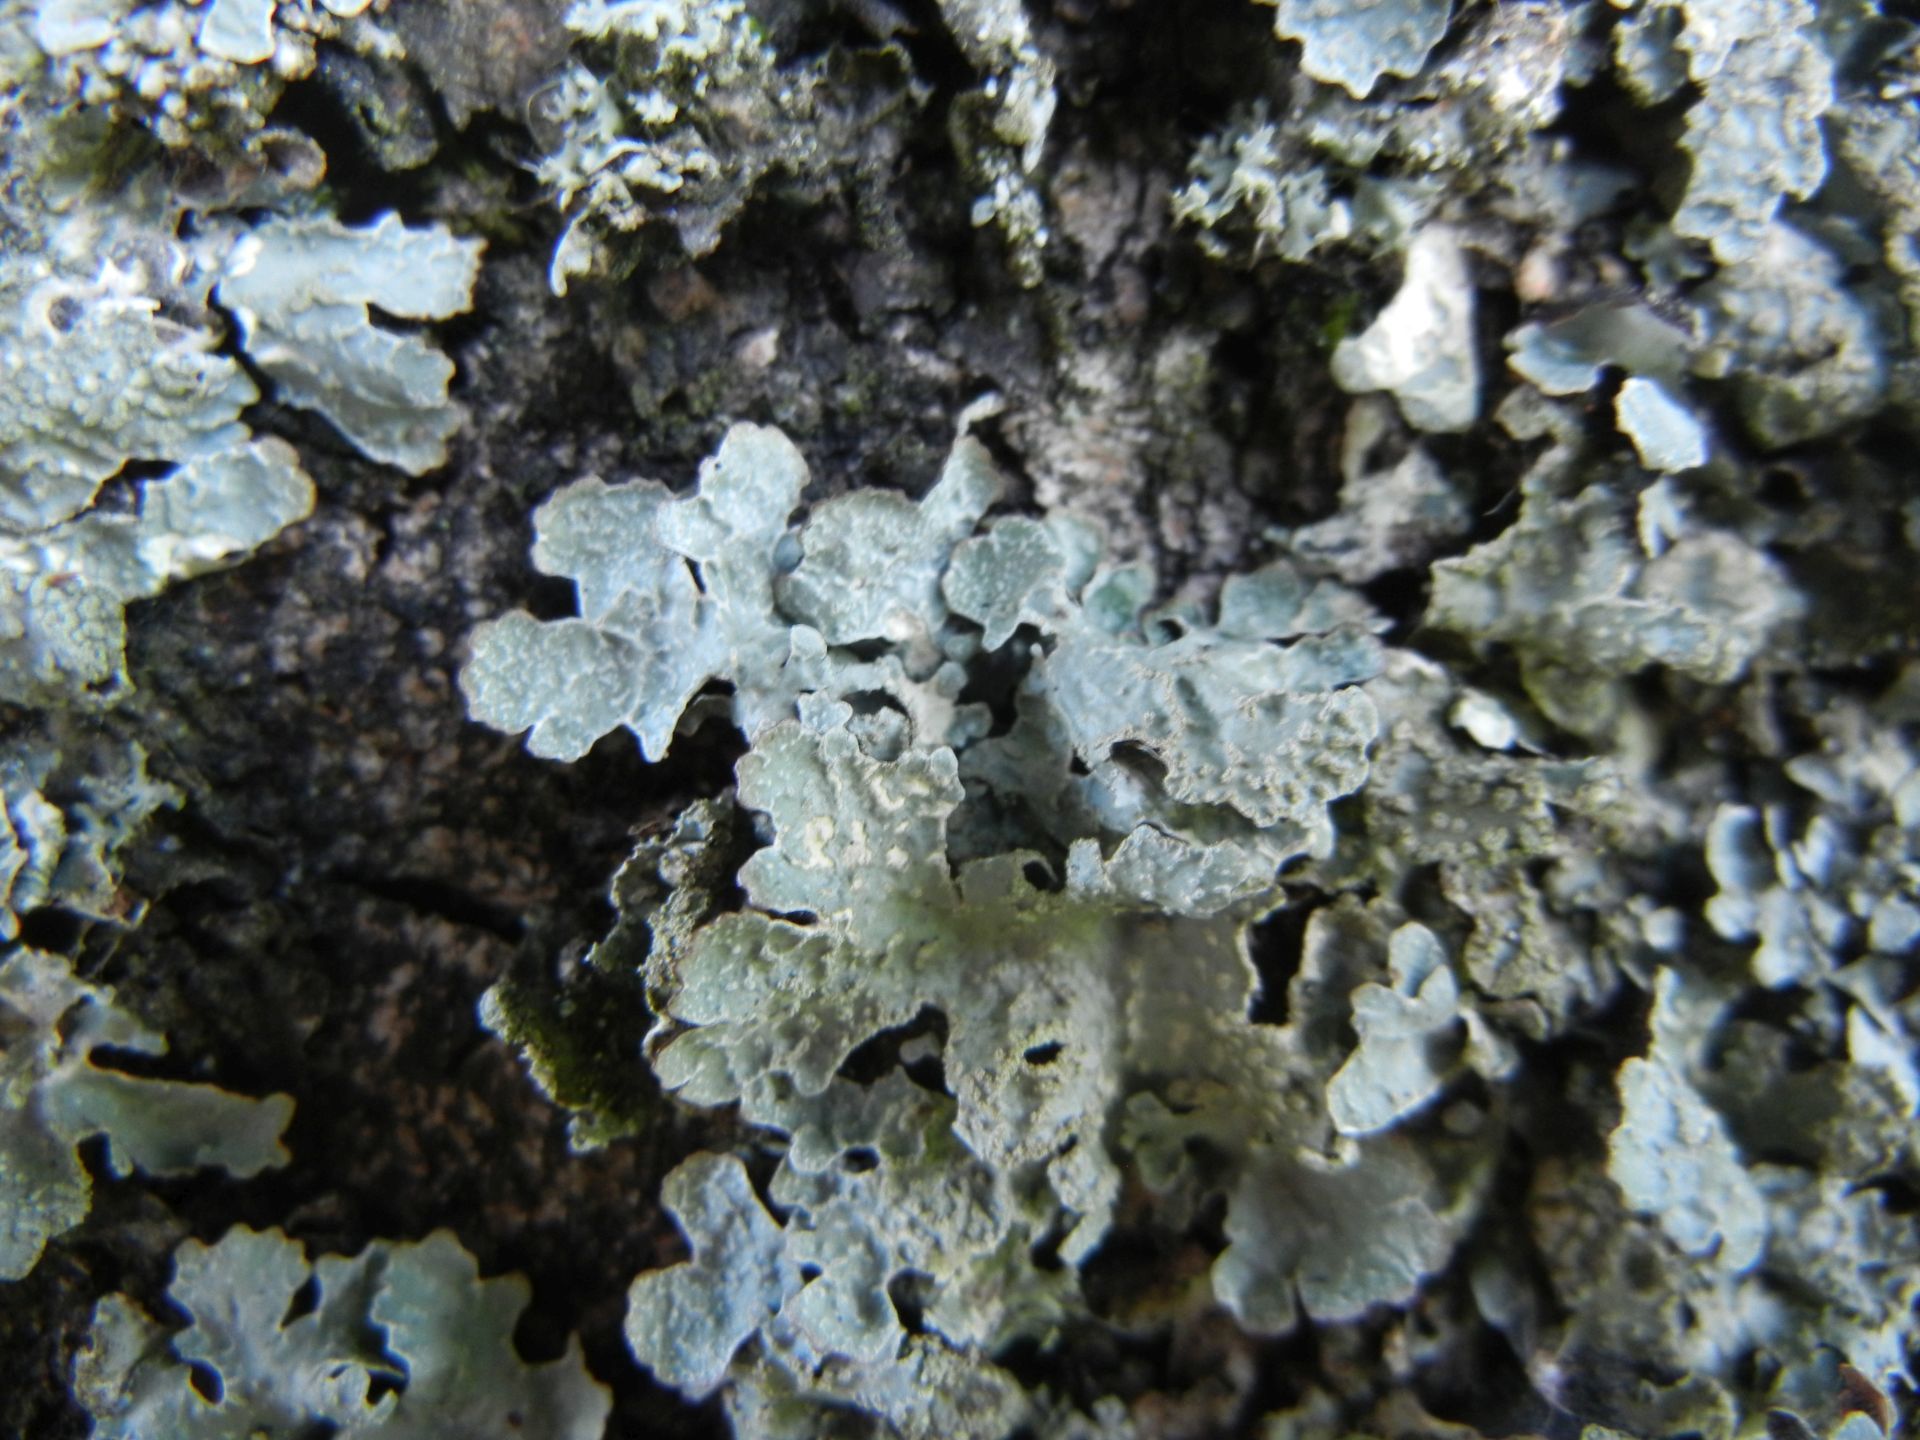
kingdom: Fungi
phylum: Ascomycota
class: Lecanoromycetes
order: Lecanorales
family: Parmeliaceae
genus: Parmelia
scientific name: Parmelia sulcata
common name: Netted shield lichen
